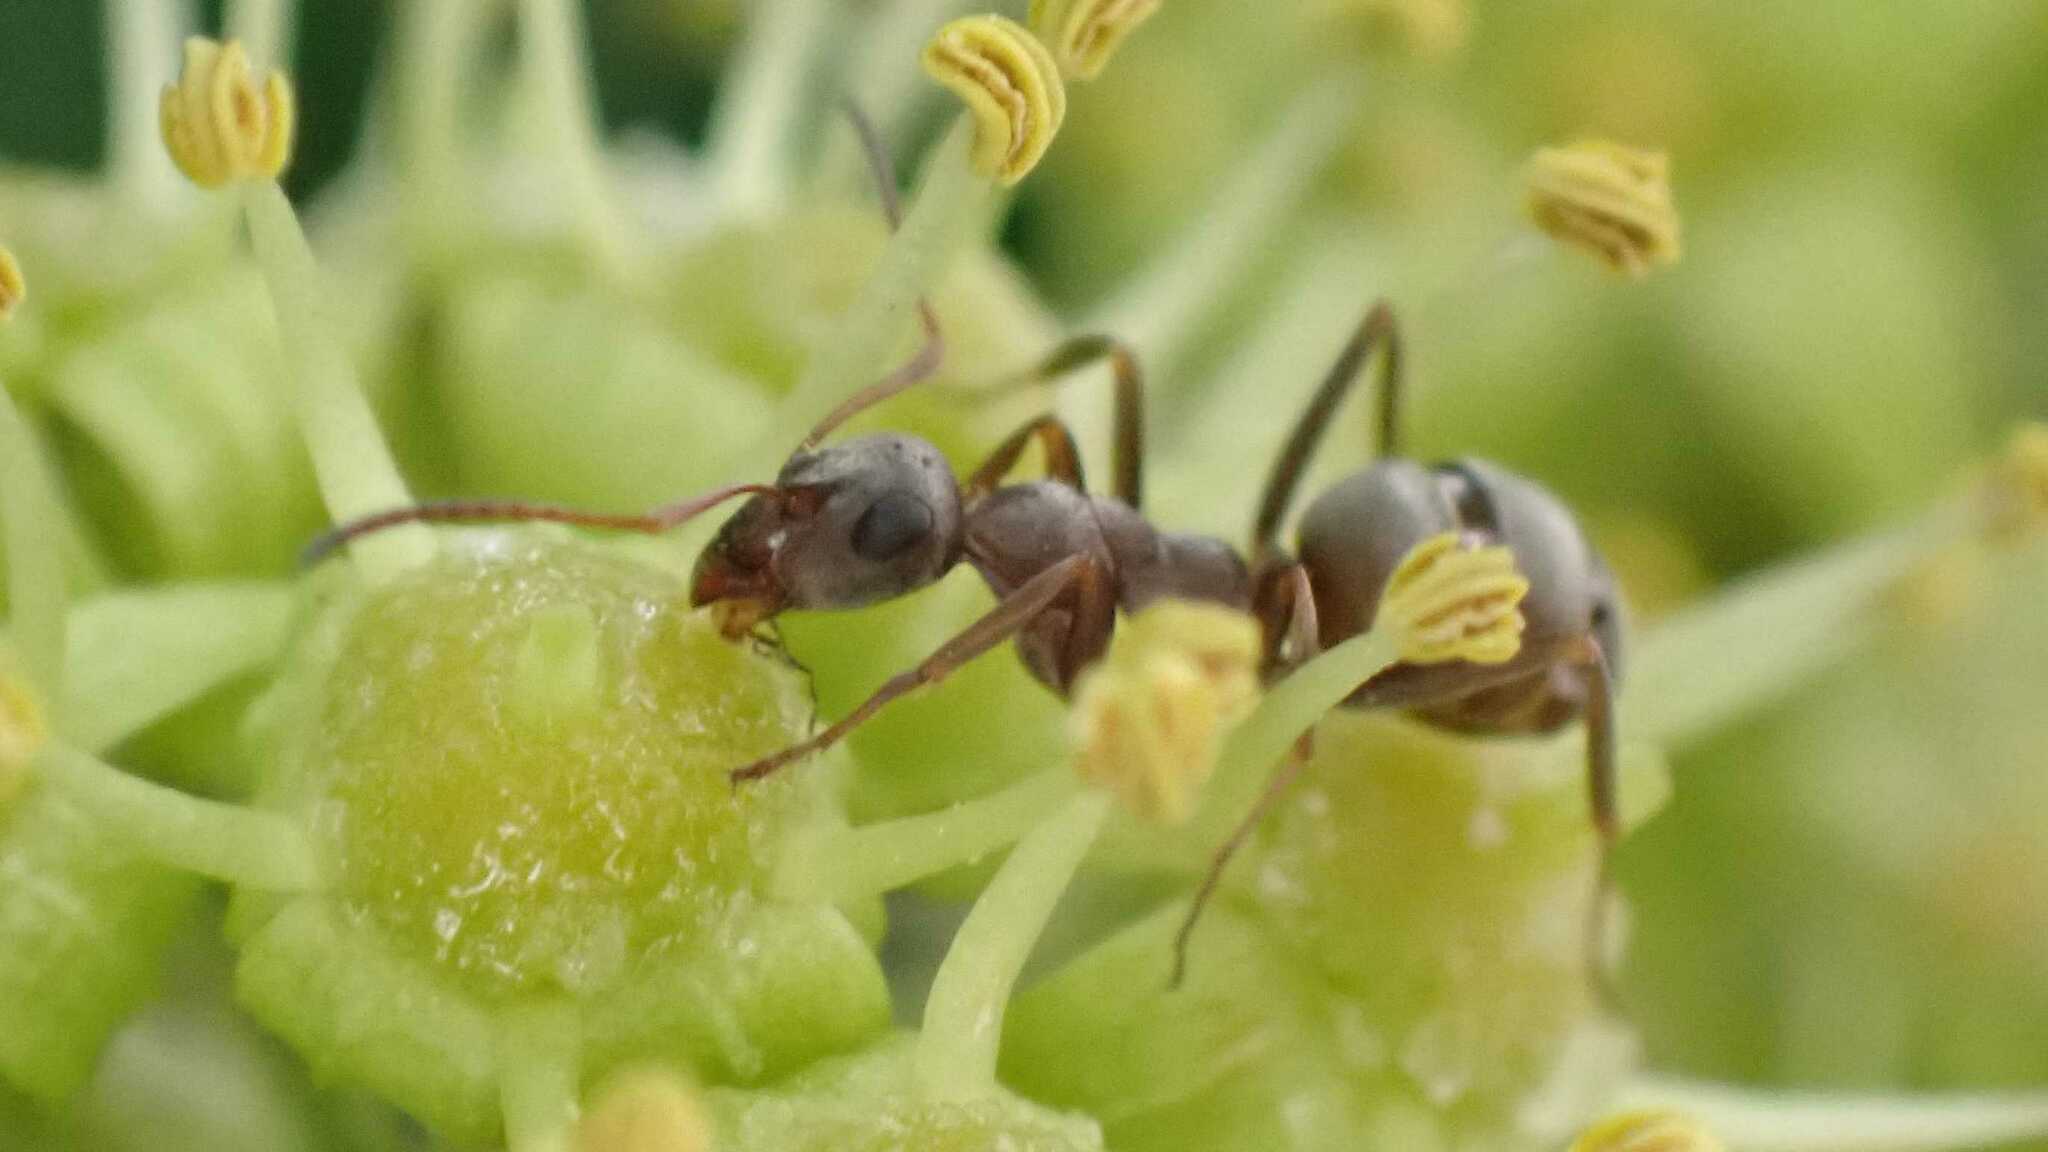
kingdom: Animalia
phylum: Arthropoda
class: Insecta
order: Hymenoptera
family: Formicidae
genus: Formica
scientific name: Formica cinerea
